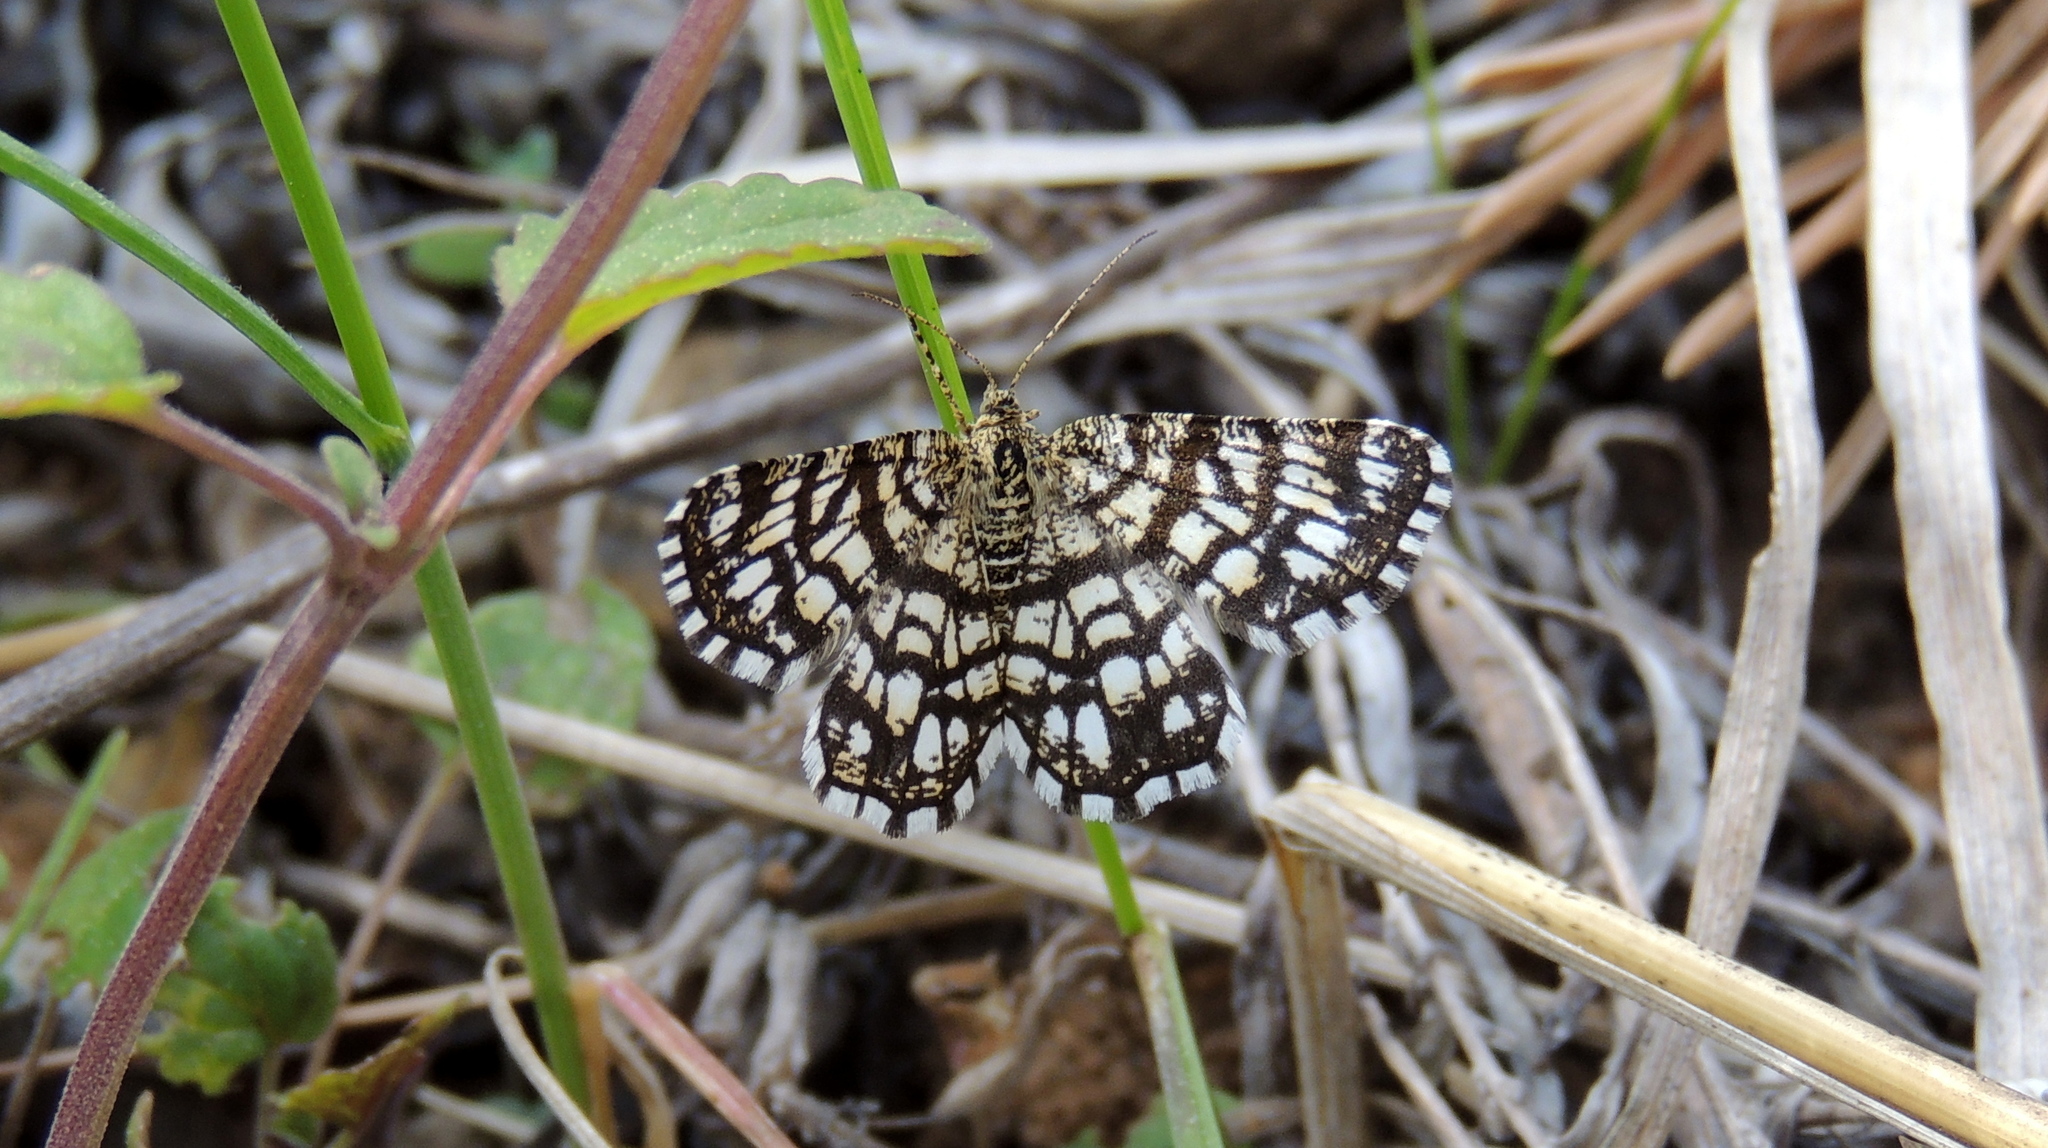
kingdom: Animalia
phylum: Arthropoda
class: Insecta
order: Lepidoptera
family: Geometridae
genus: Chiasmia
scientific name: Chiasmia clathrata
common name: Latticed heath
